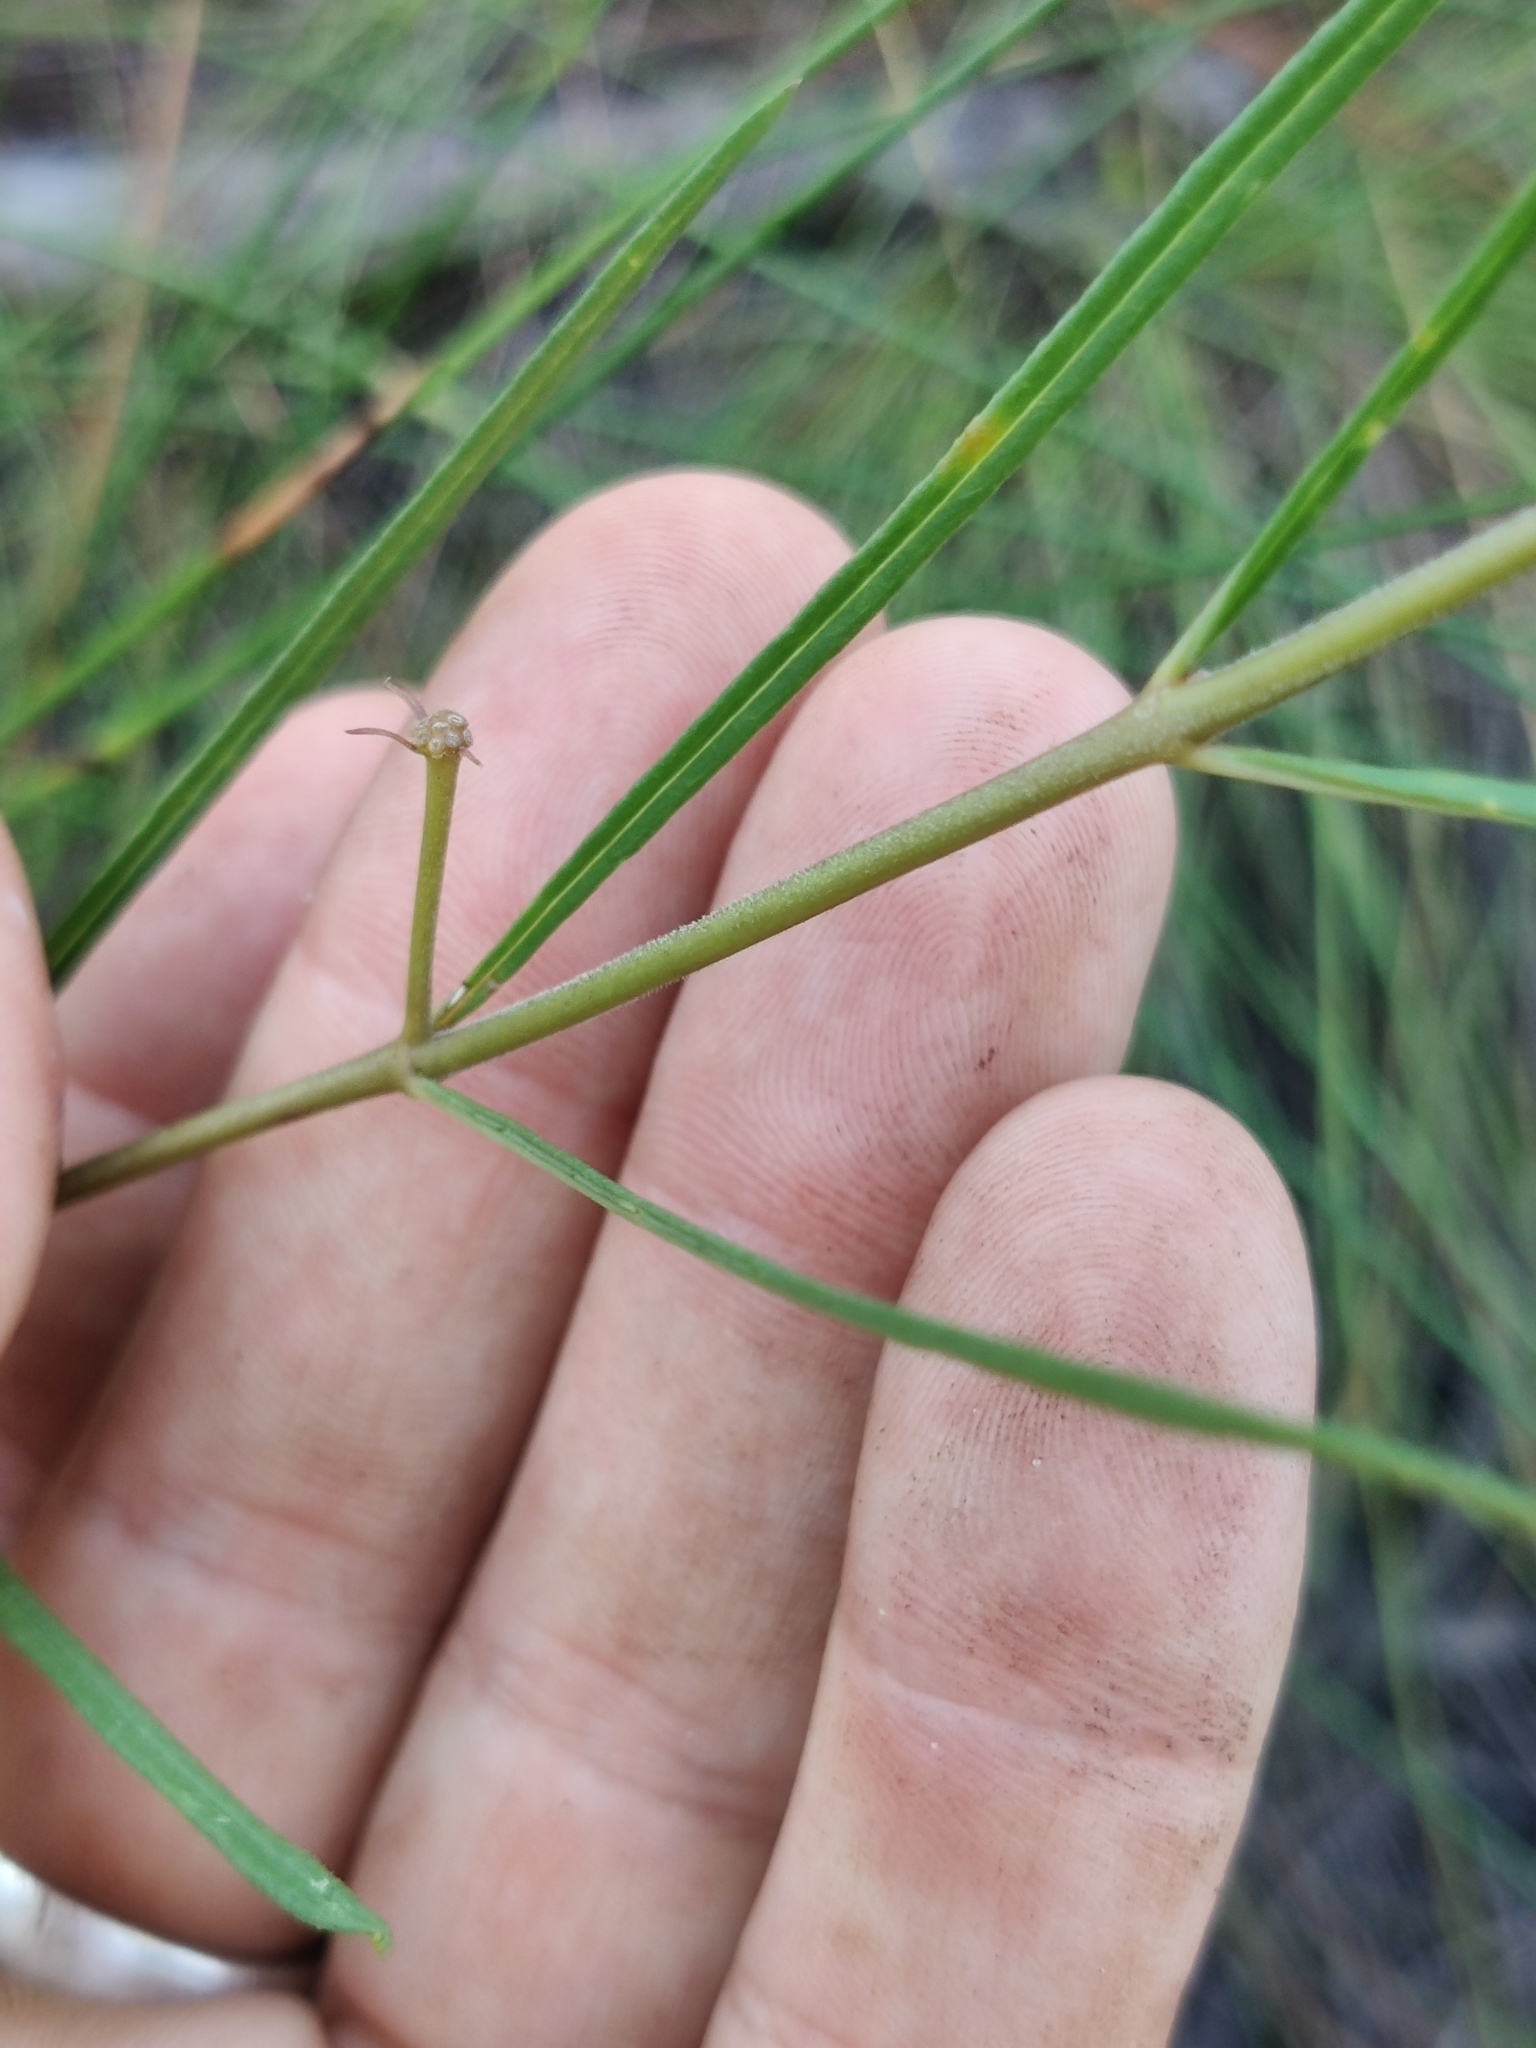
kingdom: Plantae
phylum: Tracheophyta
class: Magnoliopsida
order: Gentianales
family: Apocynaceae
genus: Asclepias
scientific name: Asclepias viridula
